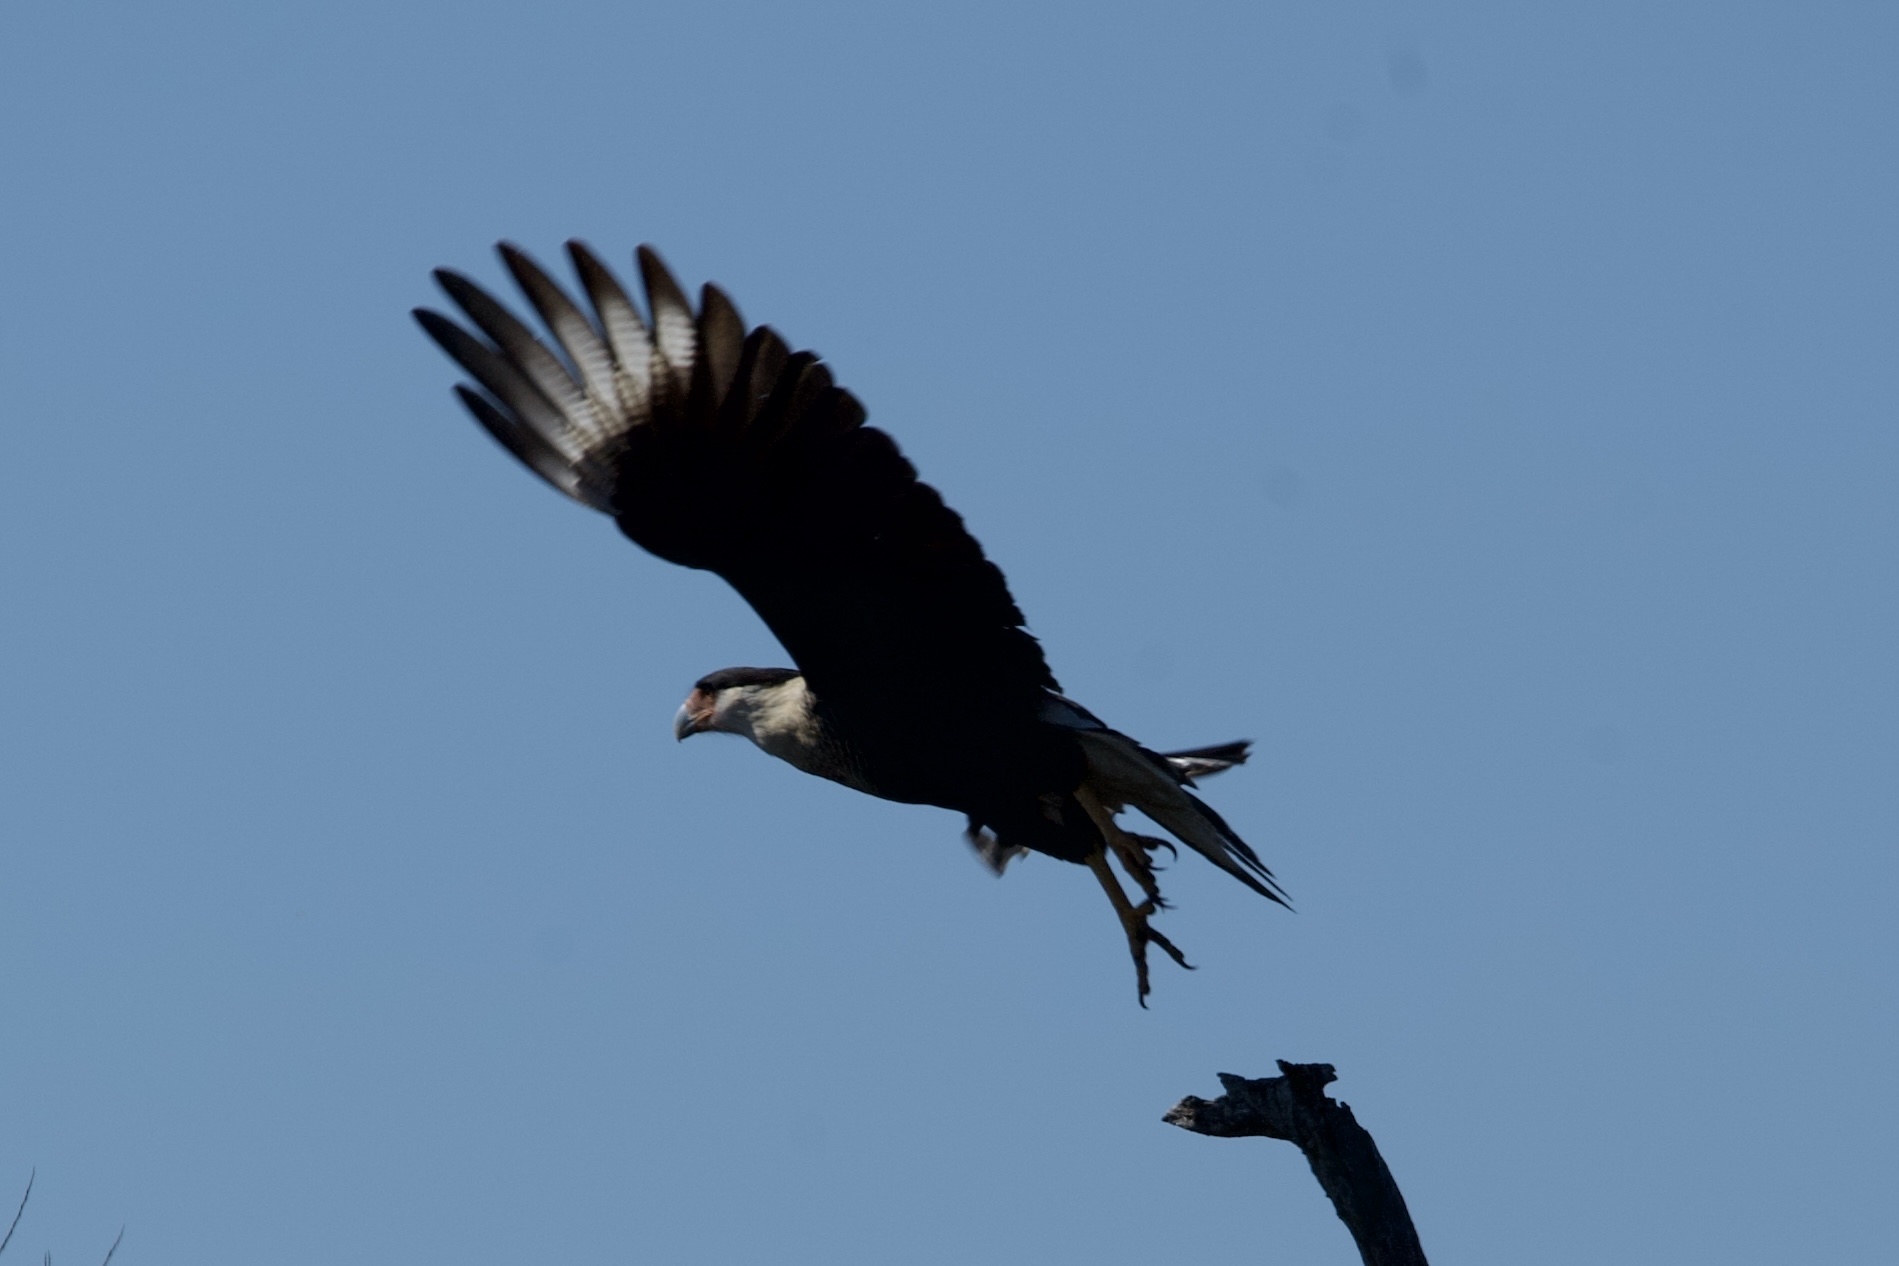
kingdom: Animalia
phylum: Chordata
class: Aves
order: Falconiformes
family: Falconidae
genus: Caracara
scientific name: Caracara plancus
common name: Southern caracara
